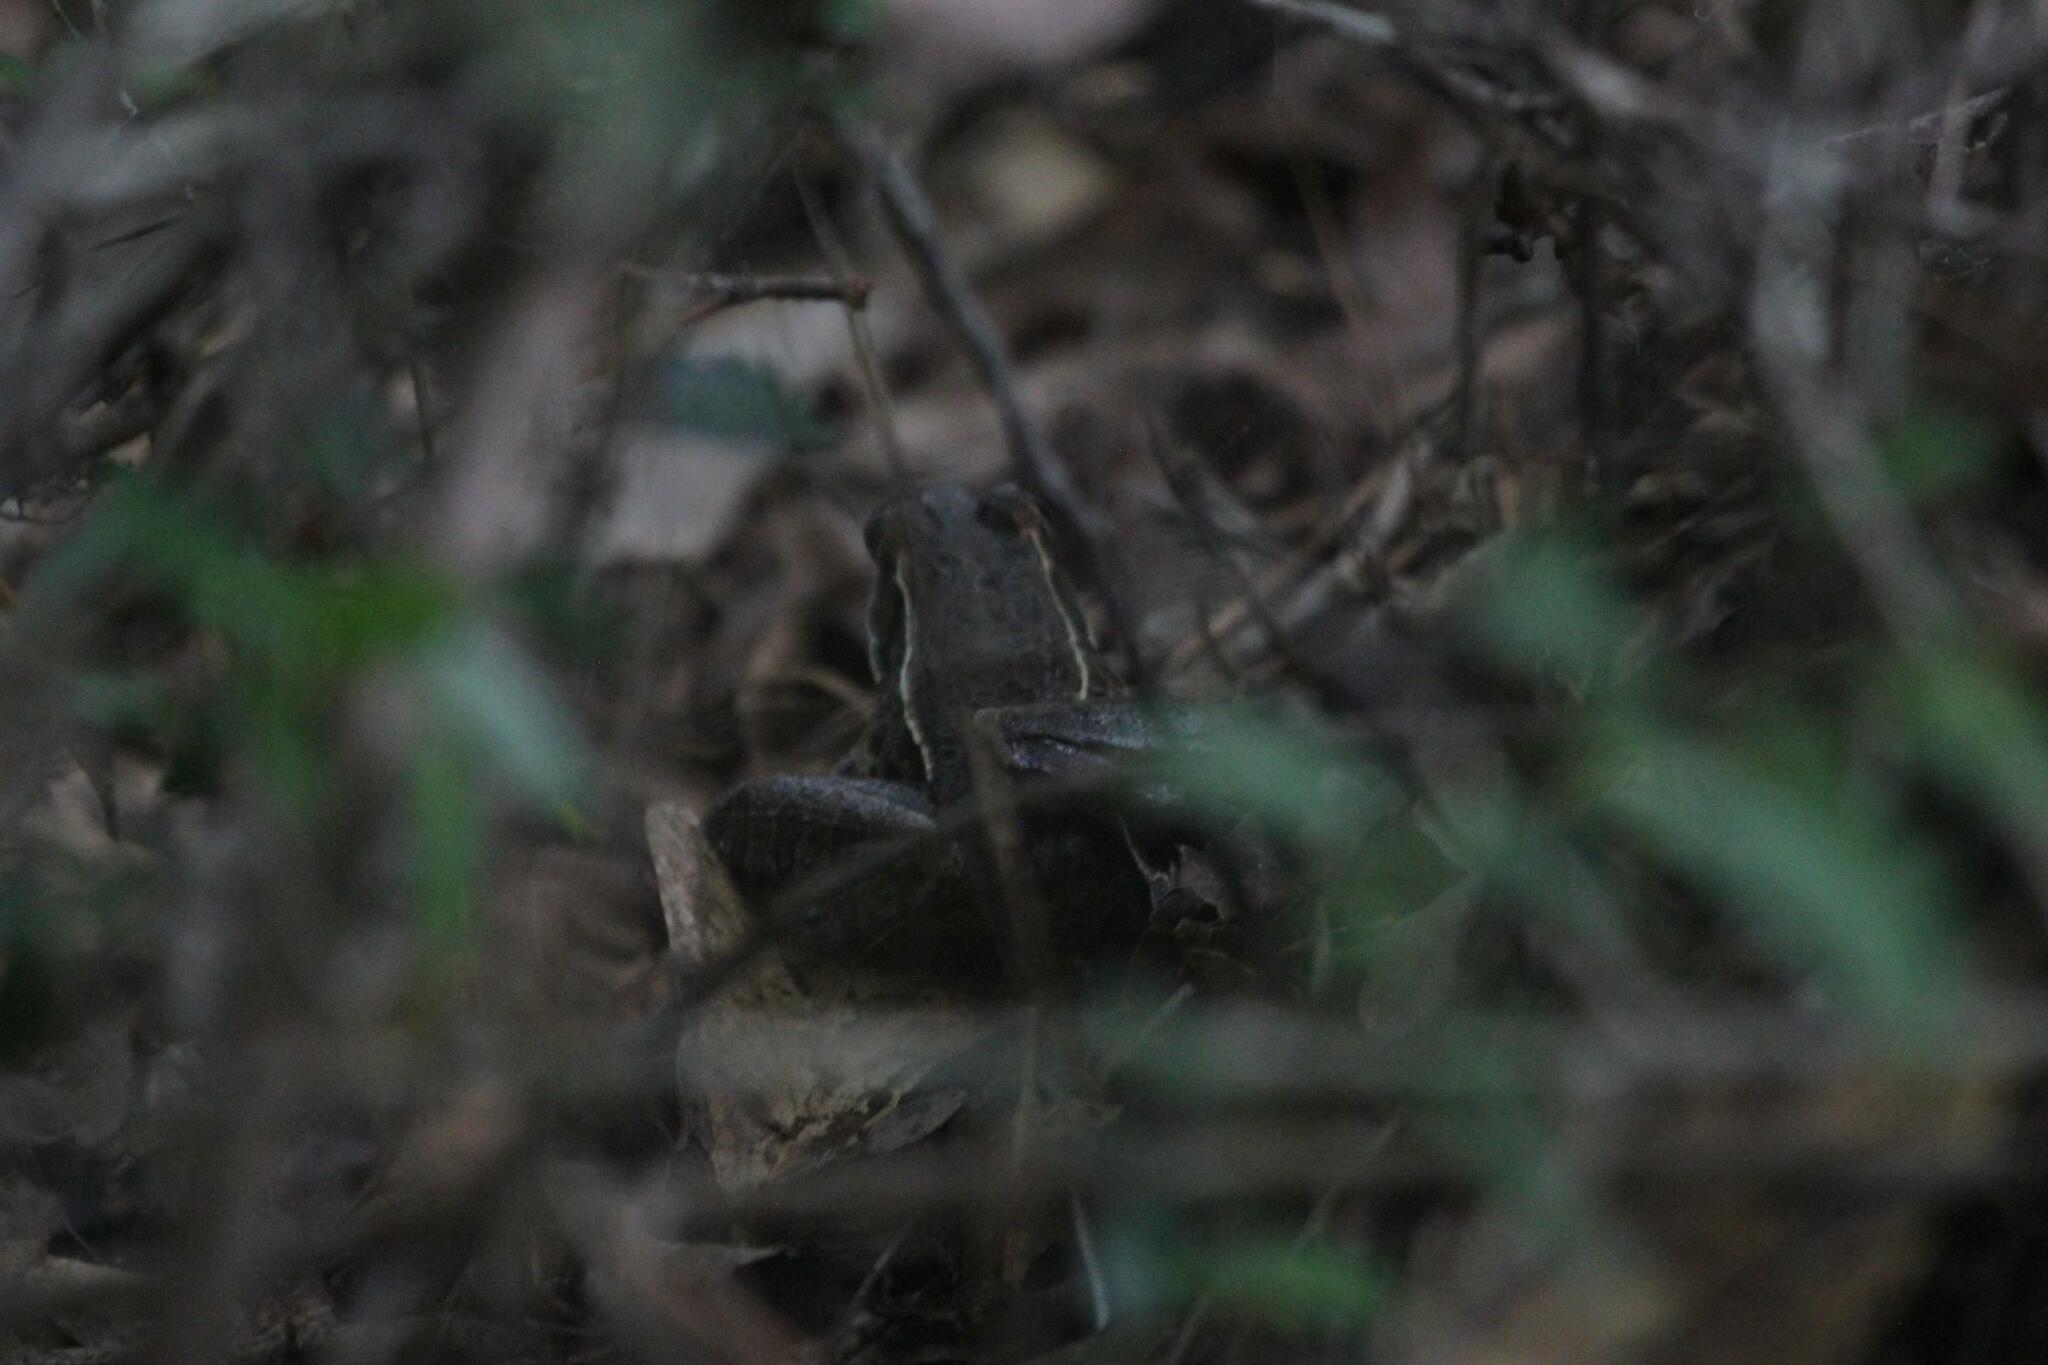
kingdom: Animalia
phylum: Chordata
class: Amphibia
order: Anura
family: Ranidae
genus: Lithobates
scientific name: Lithobates sphenocephalus
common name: Southern leopard frog
